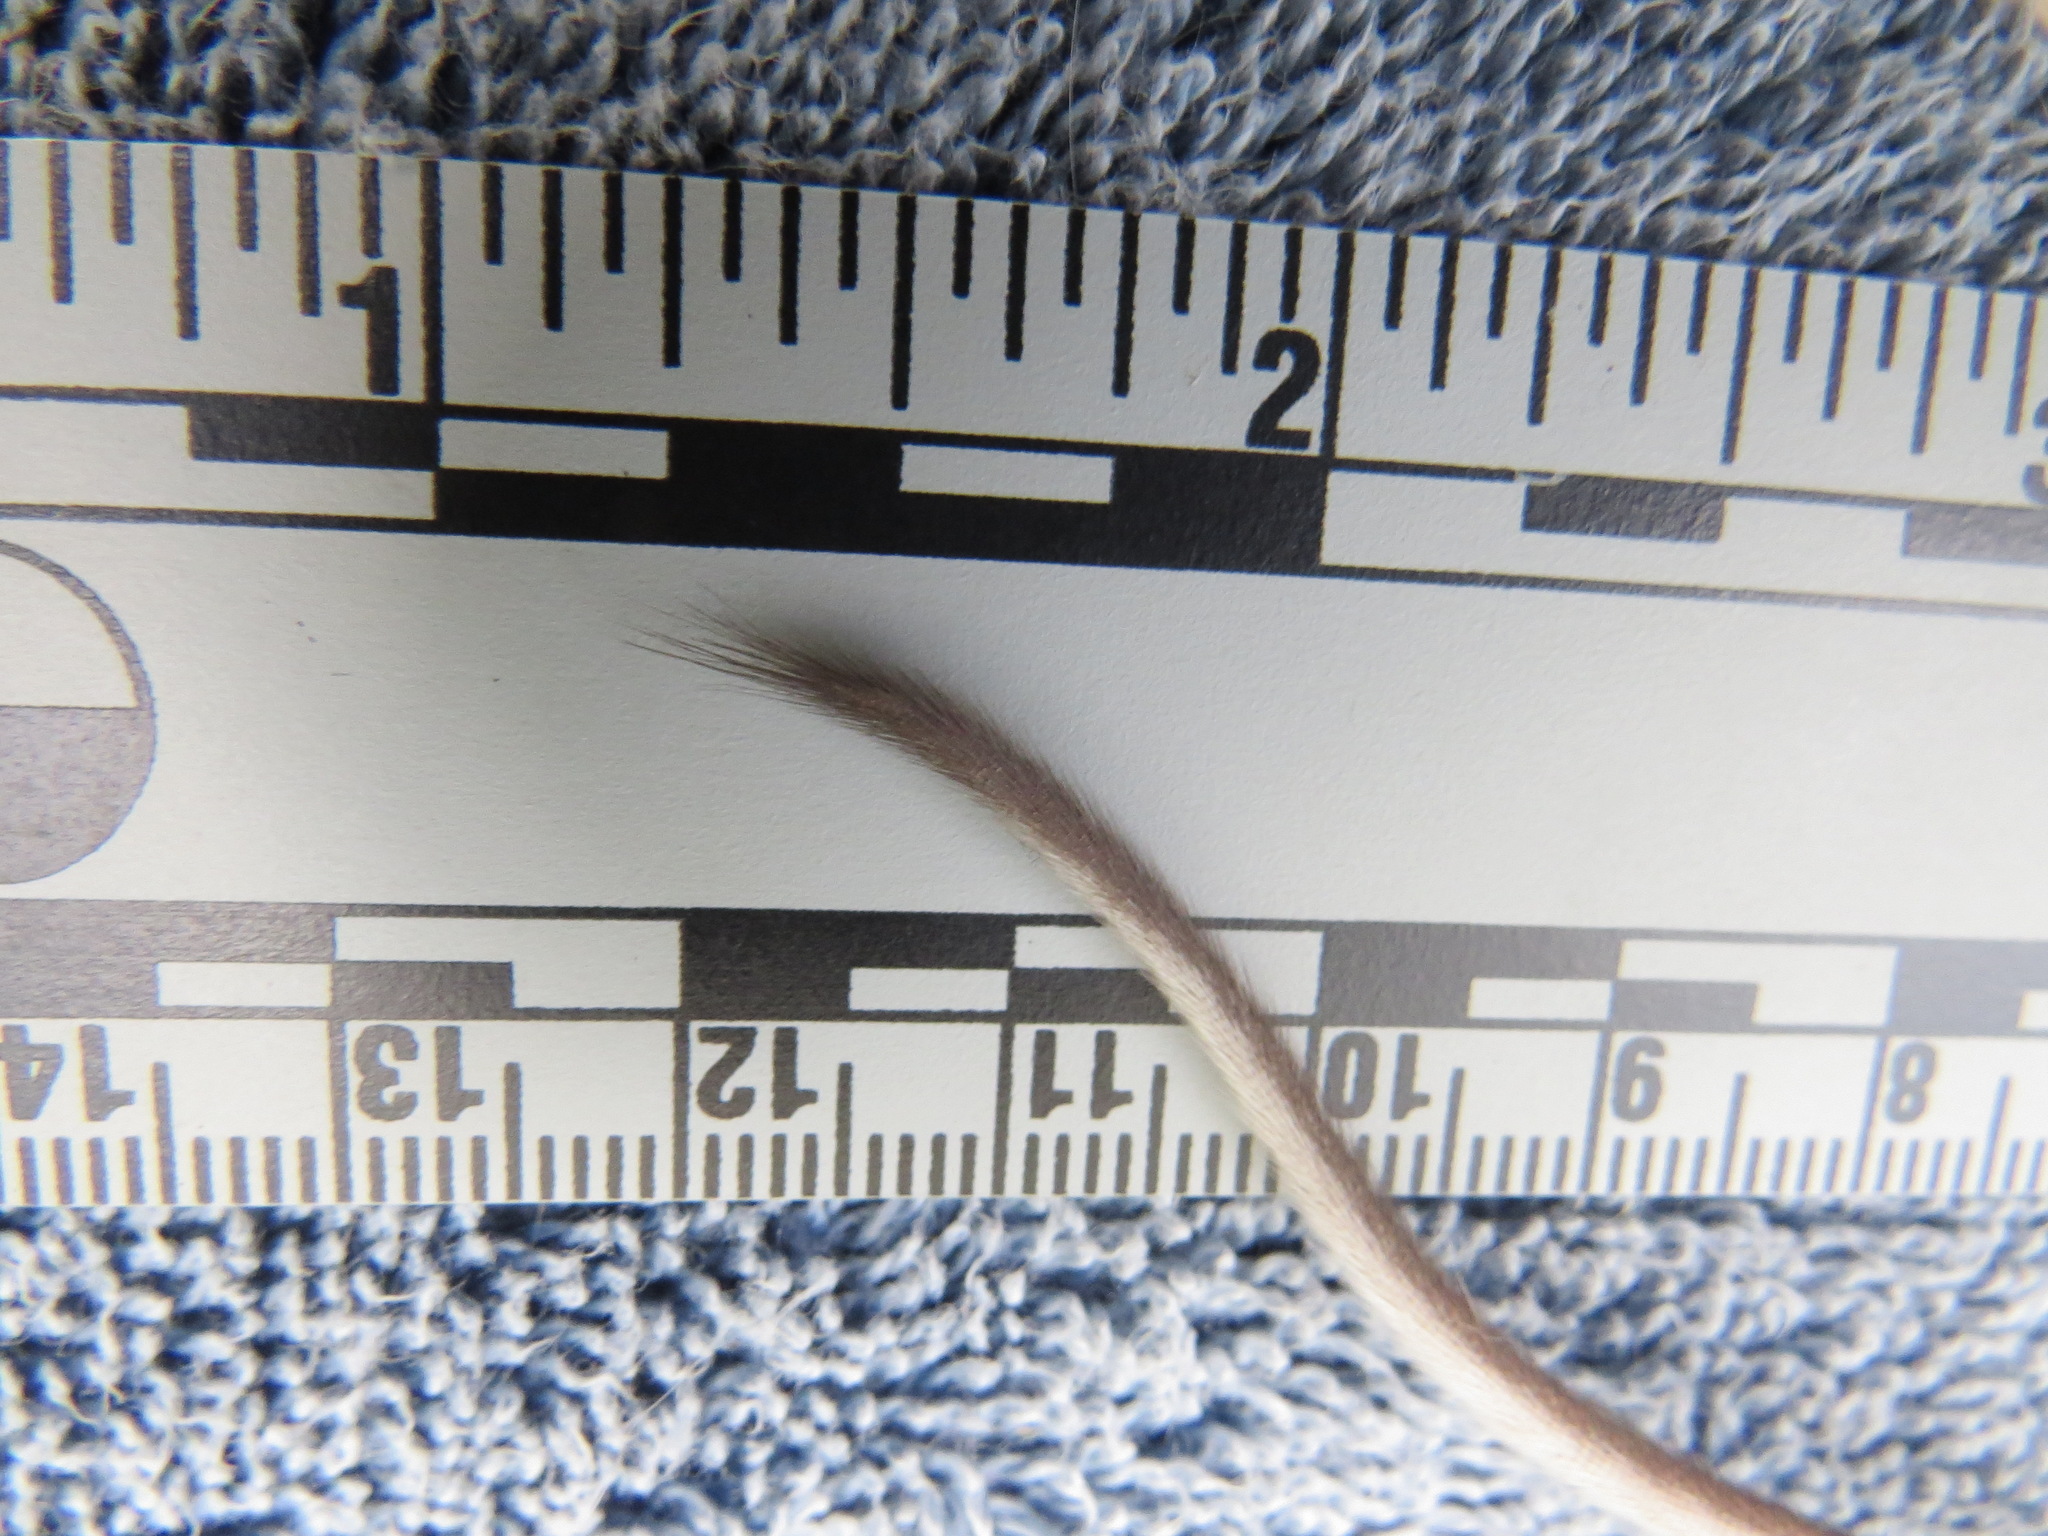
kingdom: Animalia
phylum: Chordata
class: Mammalia
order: Rodentia
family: Cricetidae
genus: Peromyscus
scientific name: Peromyscus maniculatus
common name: Deer mouse
